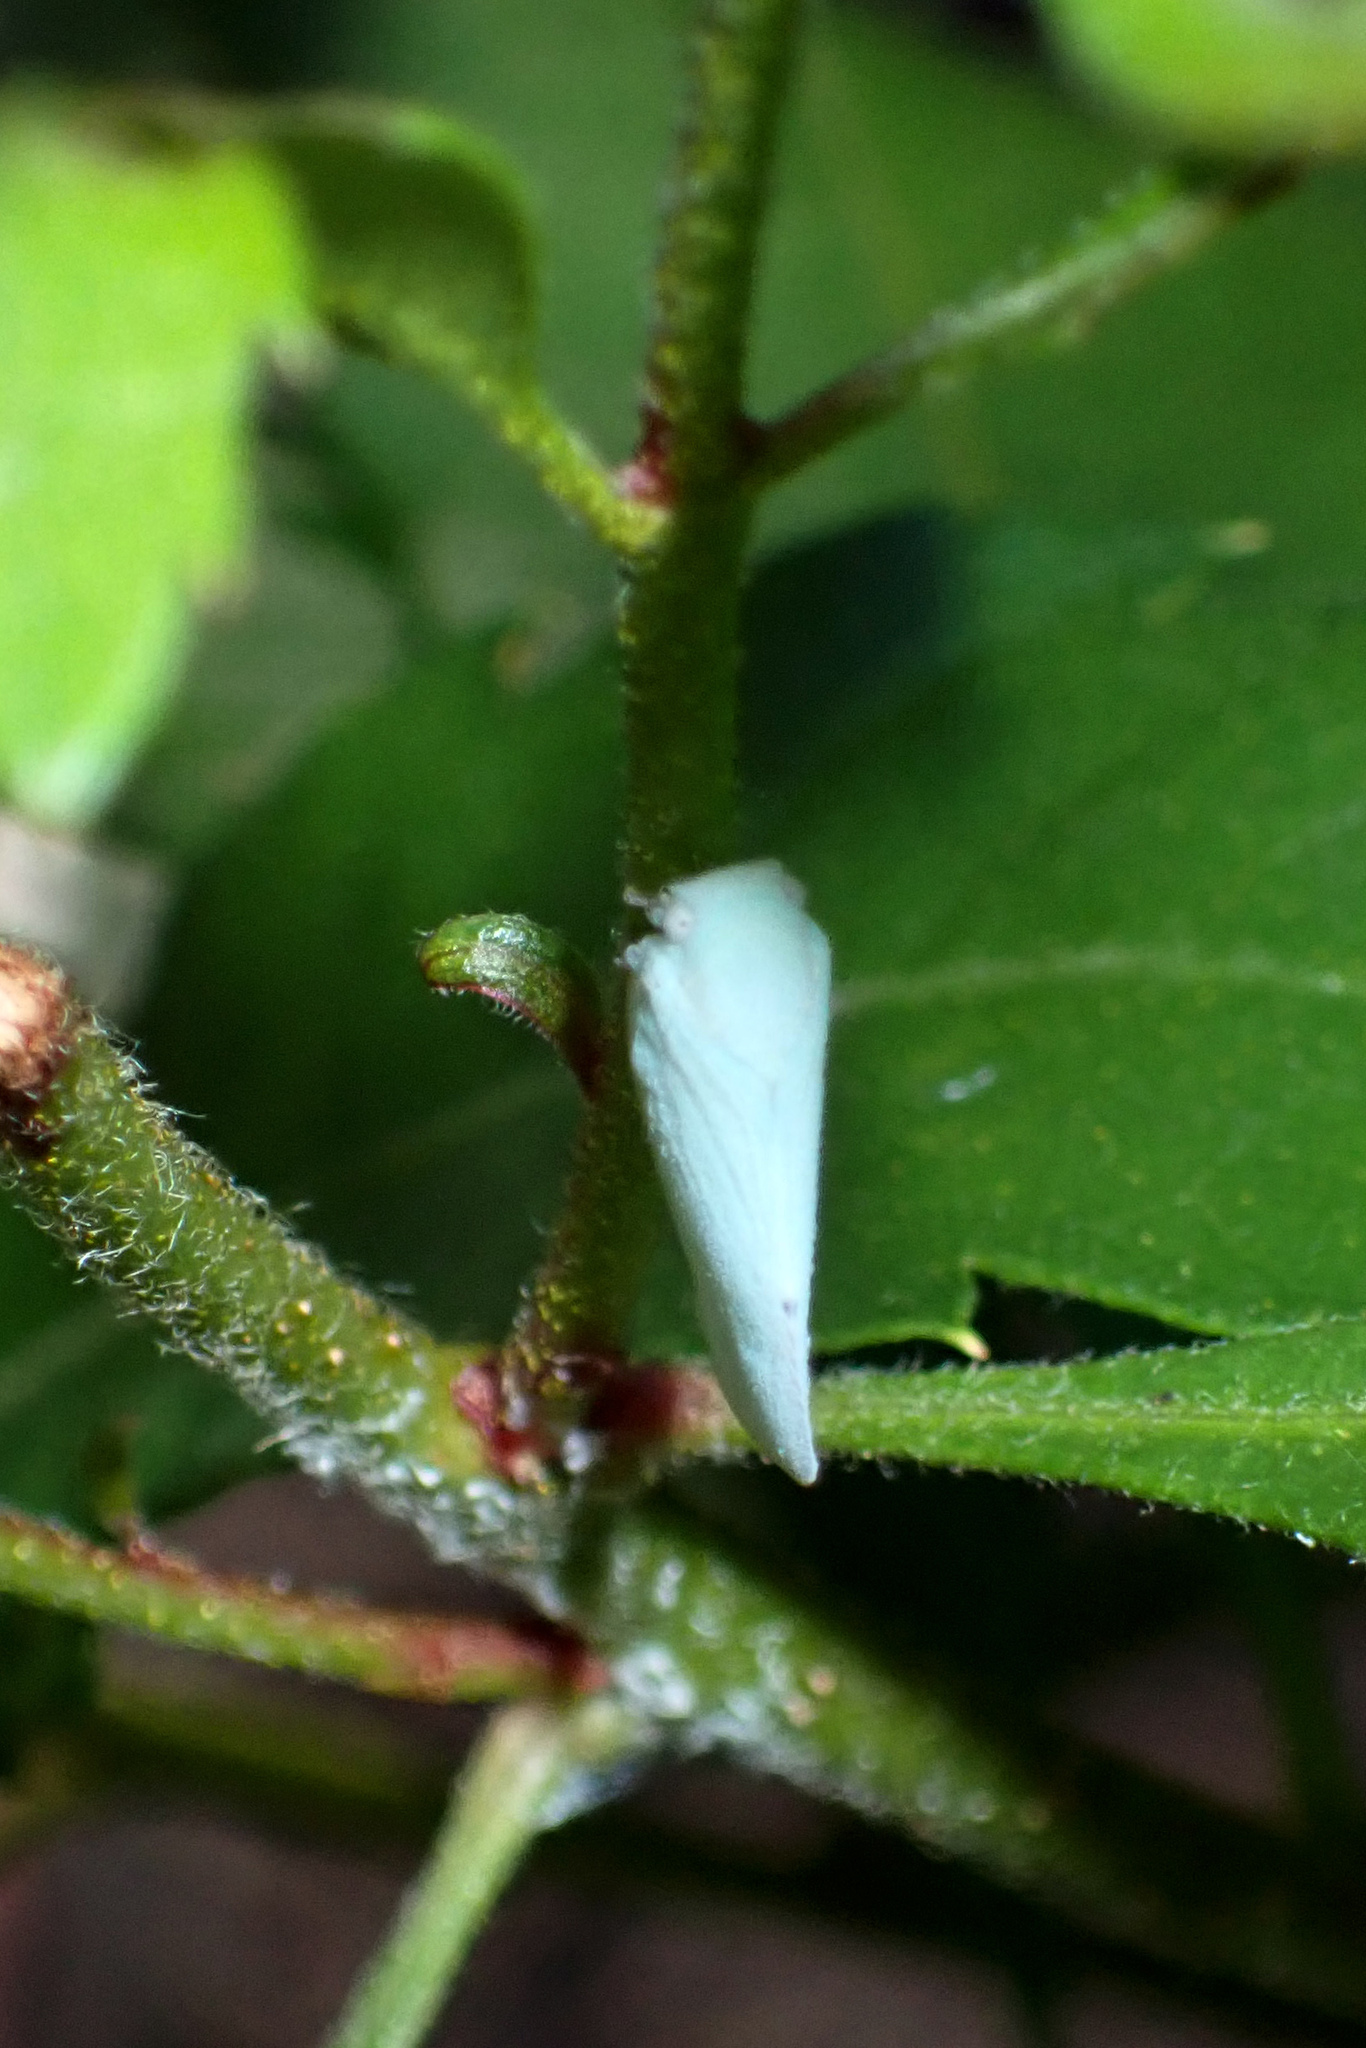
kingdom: Animalia
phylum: Arthropoda
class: Insecta
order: Hemiptera
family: Flatidae
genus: Flatormenis
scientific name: Flatormenis proxima
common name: Northern flatid planthopper
